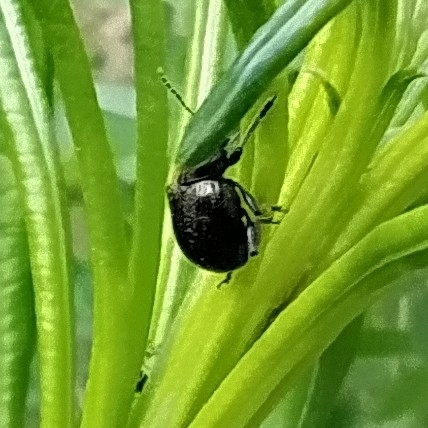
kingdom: Animalia
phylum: Arthropoda
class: Insecta
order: Coleoptera
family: Chrysomelidae
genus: Bromius
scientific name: Bromius obscurus
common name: Western grape rootworm
